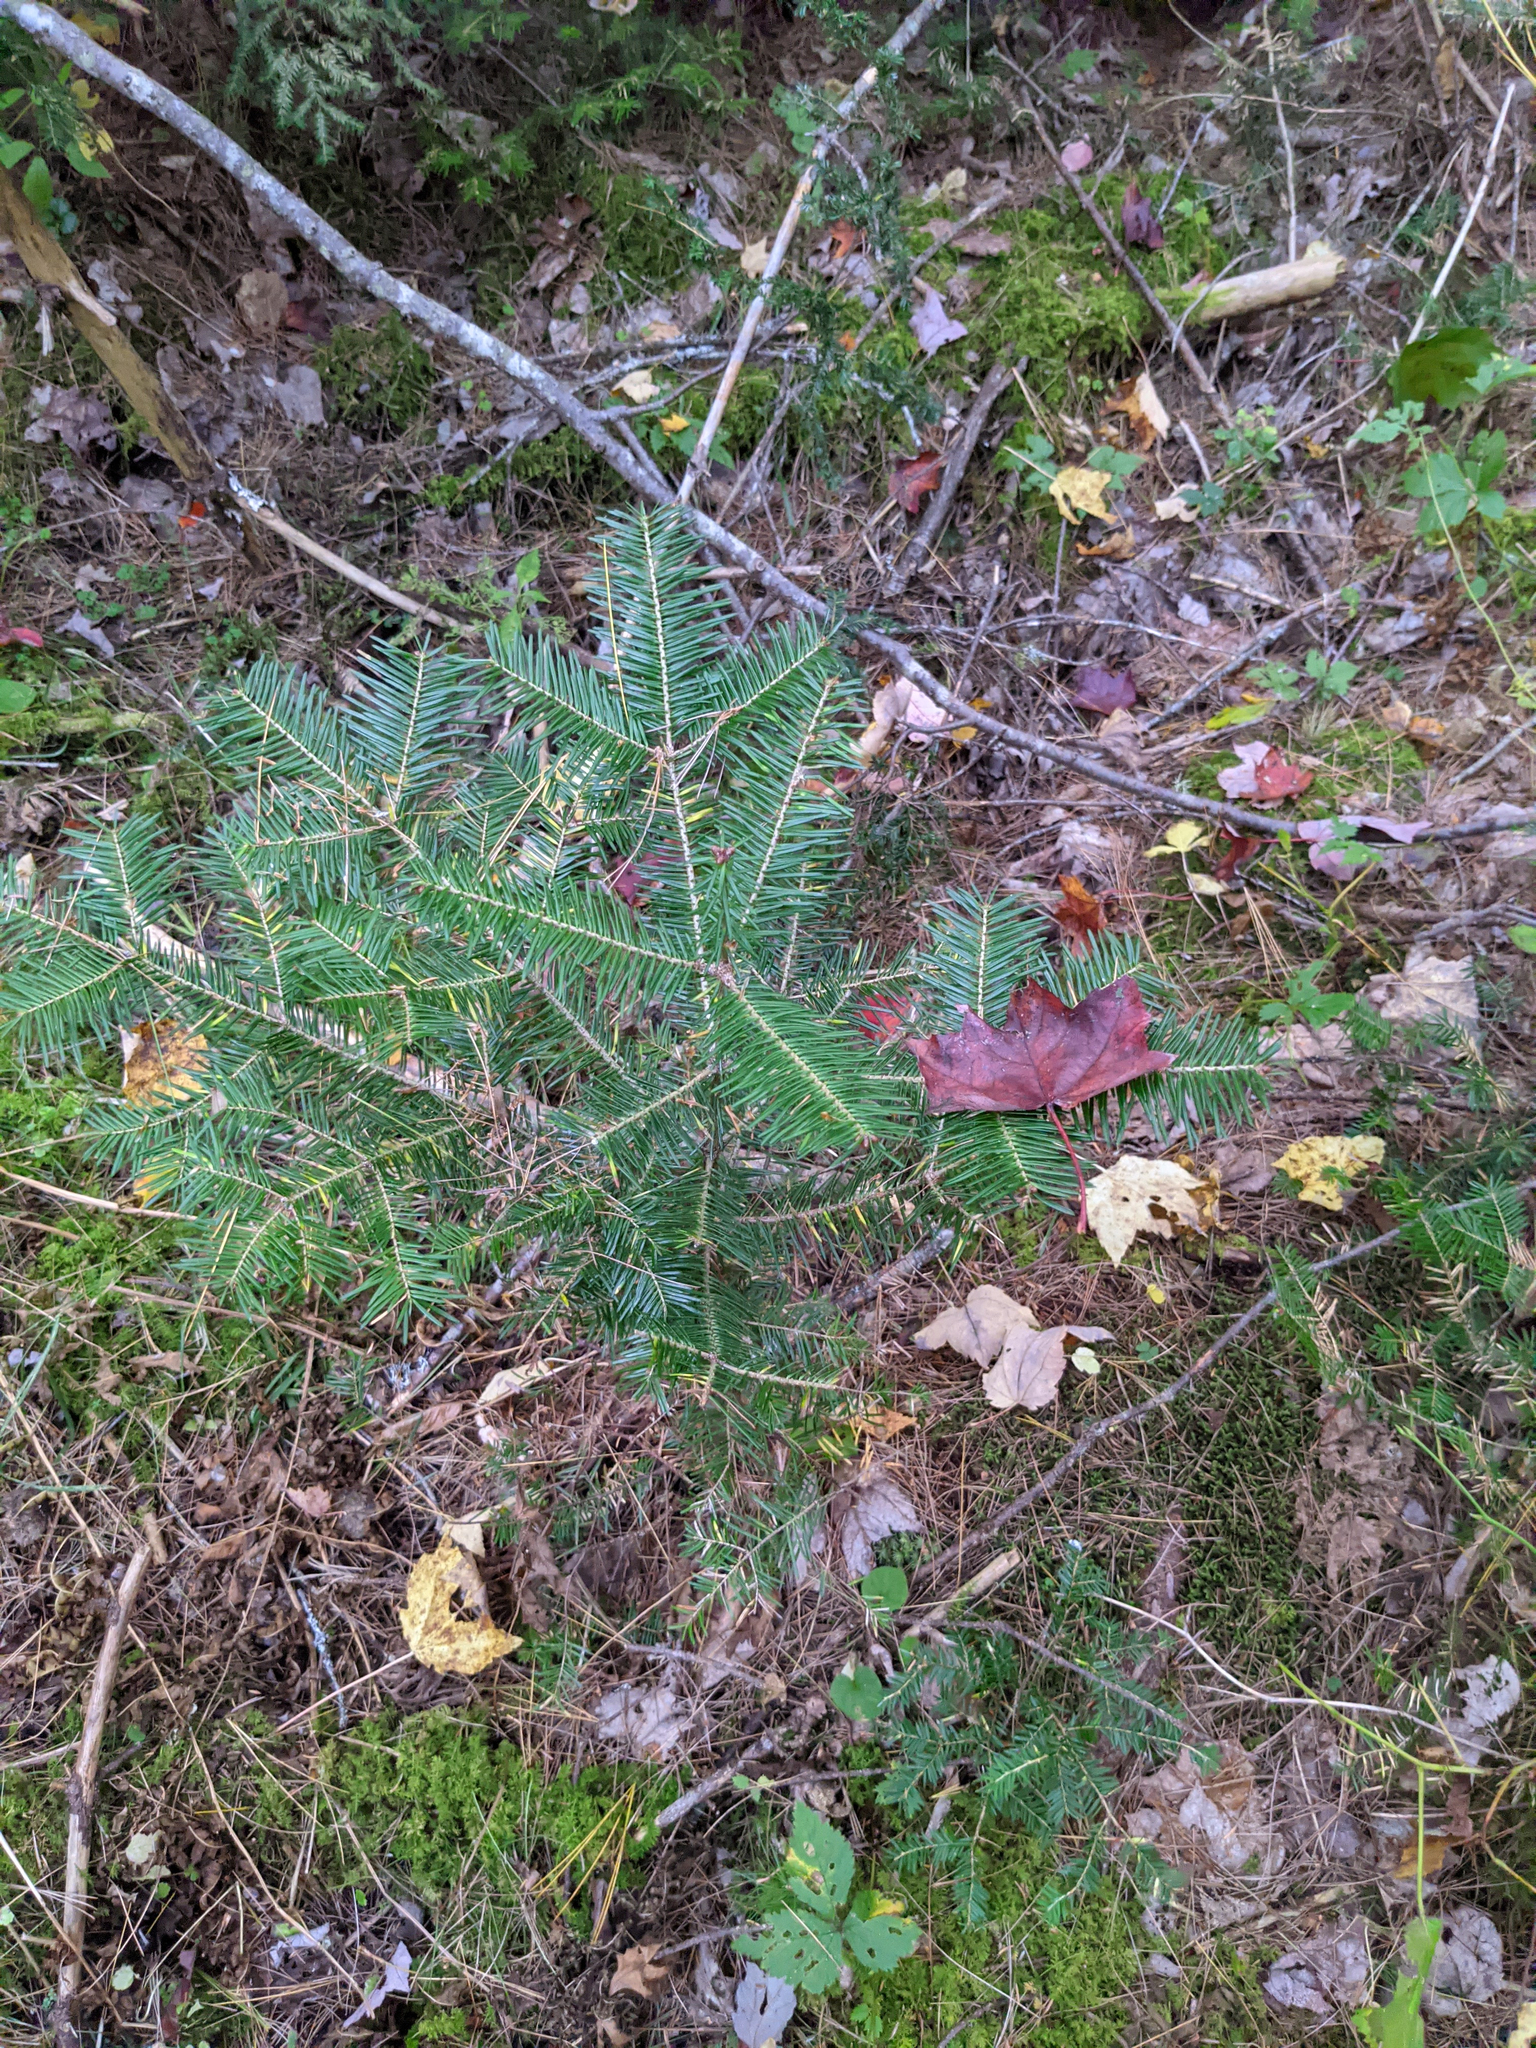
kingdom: Plantae
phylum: Tracheophyta
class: Pinopsida
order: Pinales
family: Pinaceae
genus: Abies
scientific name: Abies balsamea
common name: Balsam fir
